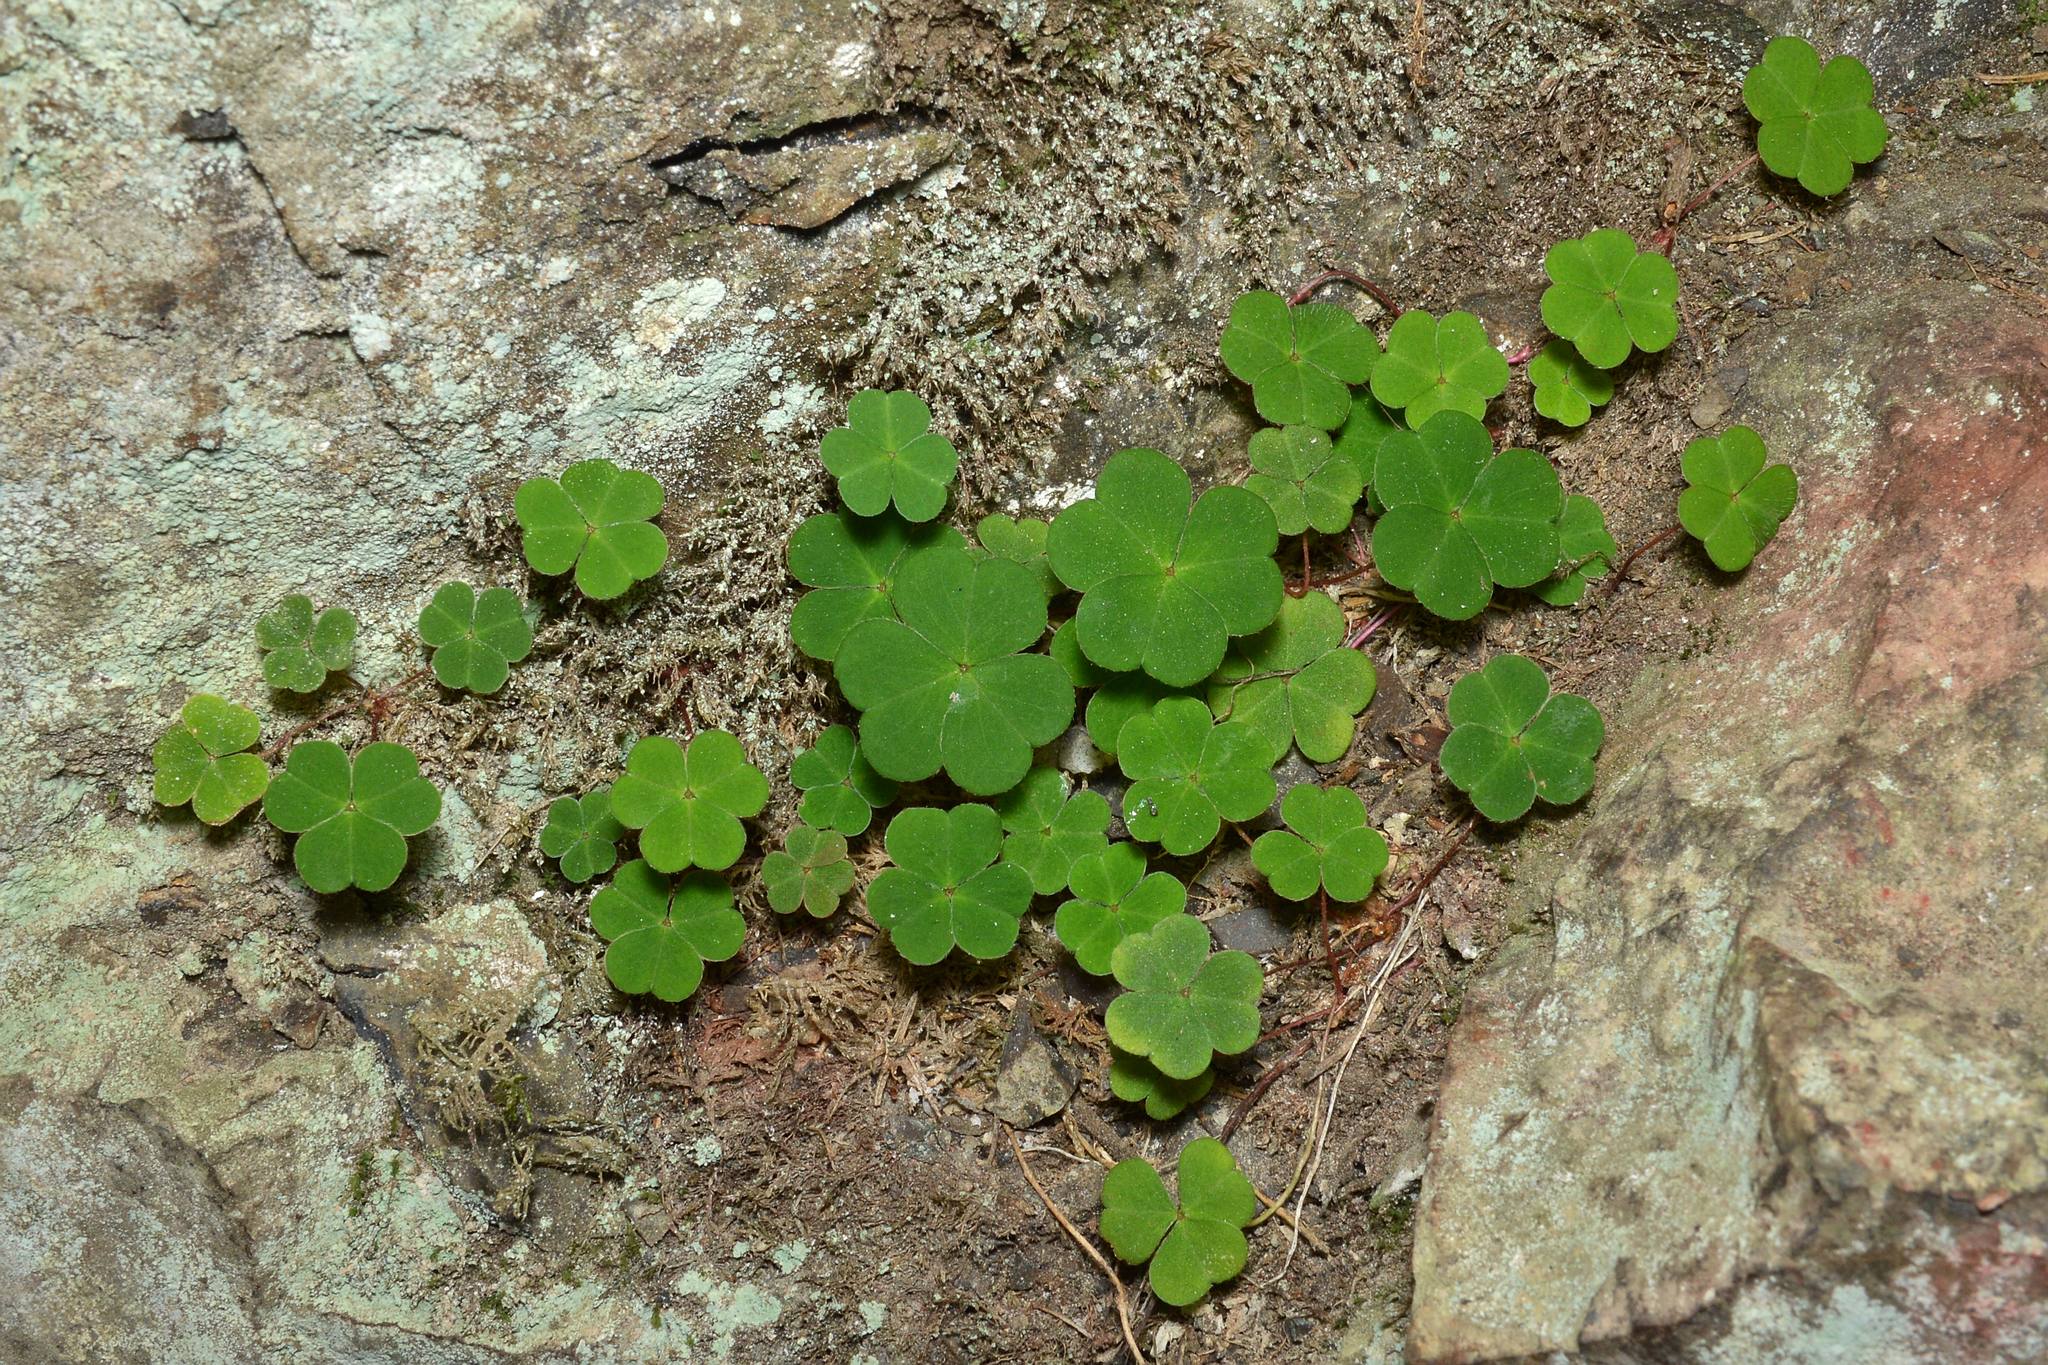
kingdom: Plantae
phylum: Tracheophyta
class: Magnoliopsida
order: Oxalidales
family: Oxalidaceae
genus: Oxalis
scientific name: Oxalis acetosella
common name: Wood-sorrel
